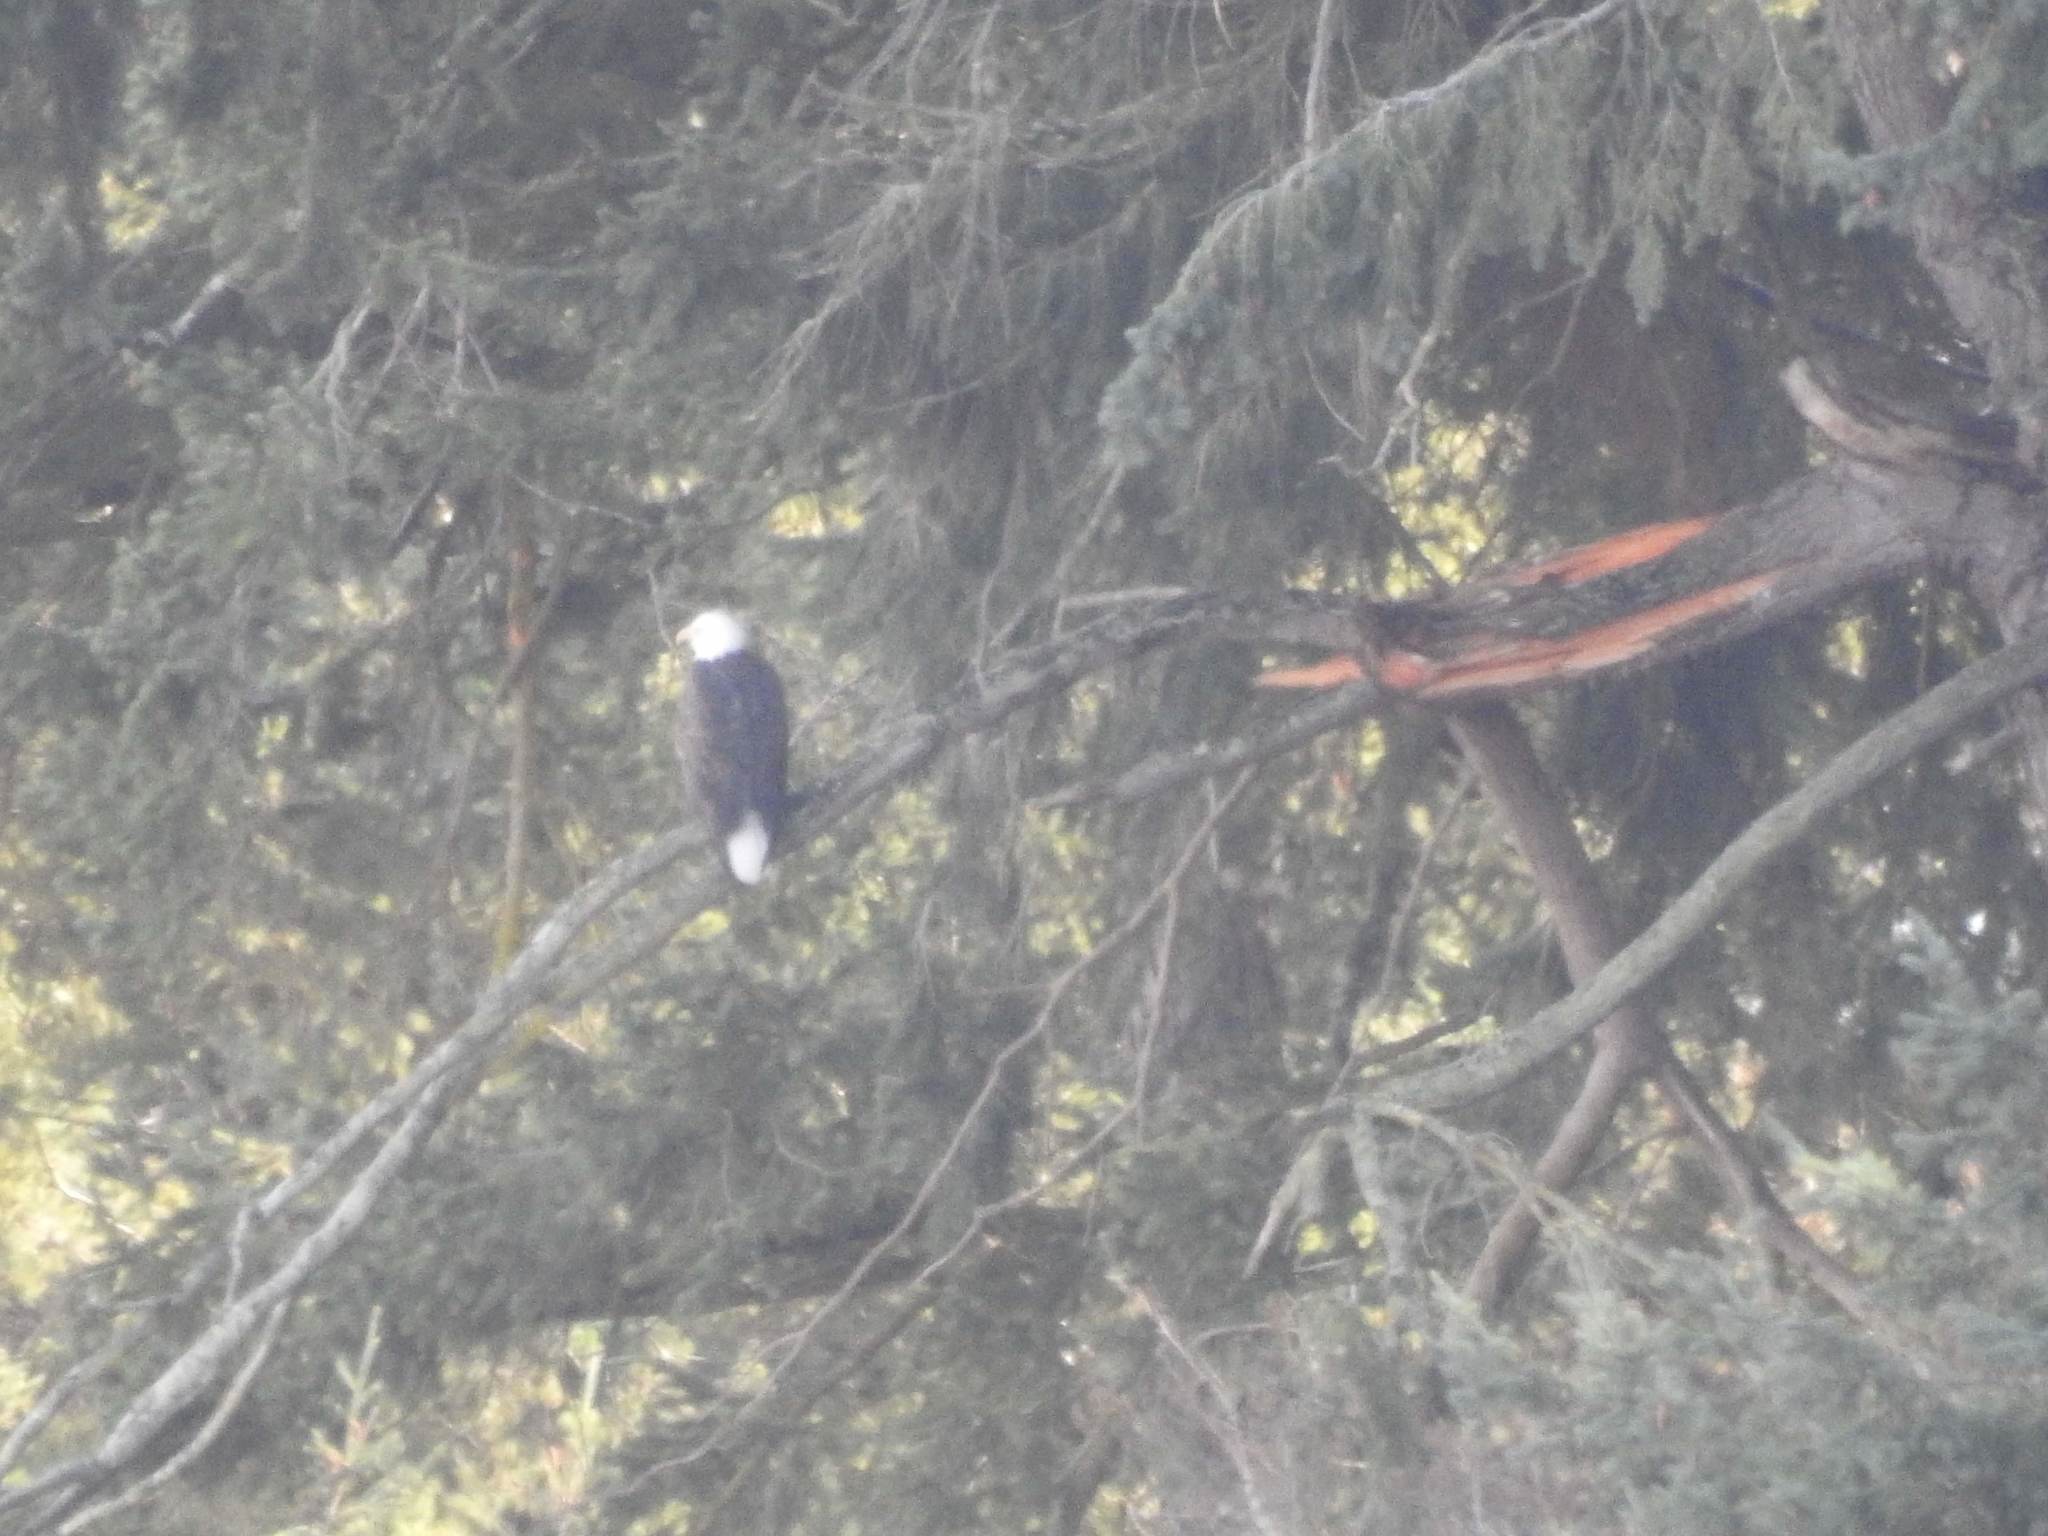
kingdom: Animalia
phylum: Chordata
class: Aves
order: Accipitriformes
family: Accipitridae
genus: Haliaeetus
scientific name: Haliaeetus leucocephalus
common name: Bald eagle
